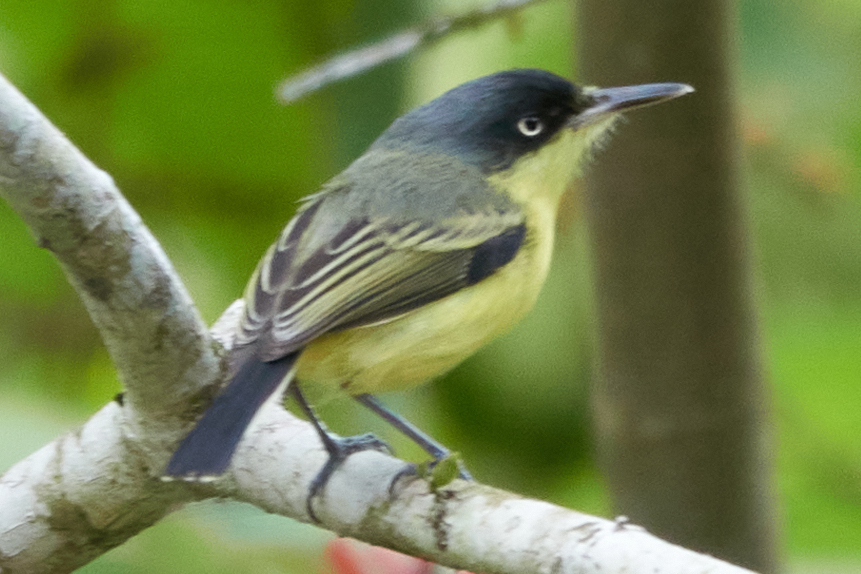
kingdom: Animalia
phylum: Chordata
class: Aves
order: Passeriformes
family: Tyrannidae
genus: Todirostrum
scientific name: Todirostrum cinereum
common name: Common tody-flycatcher
